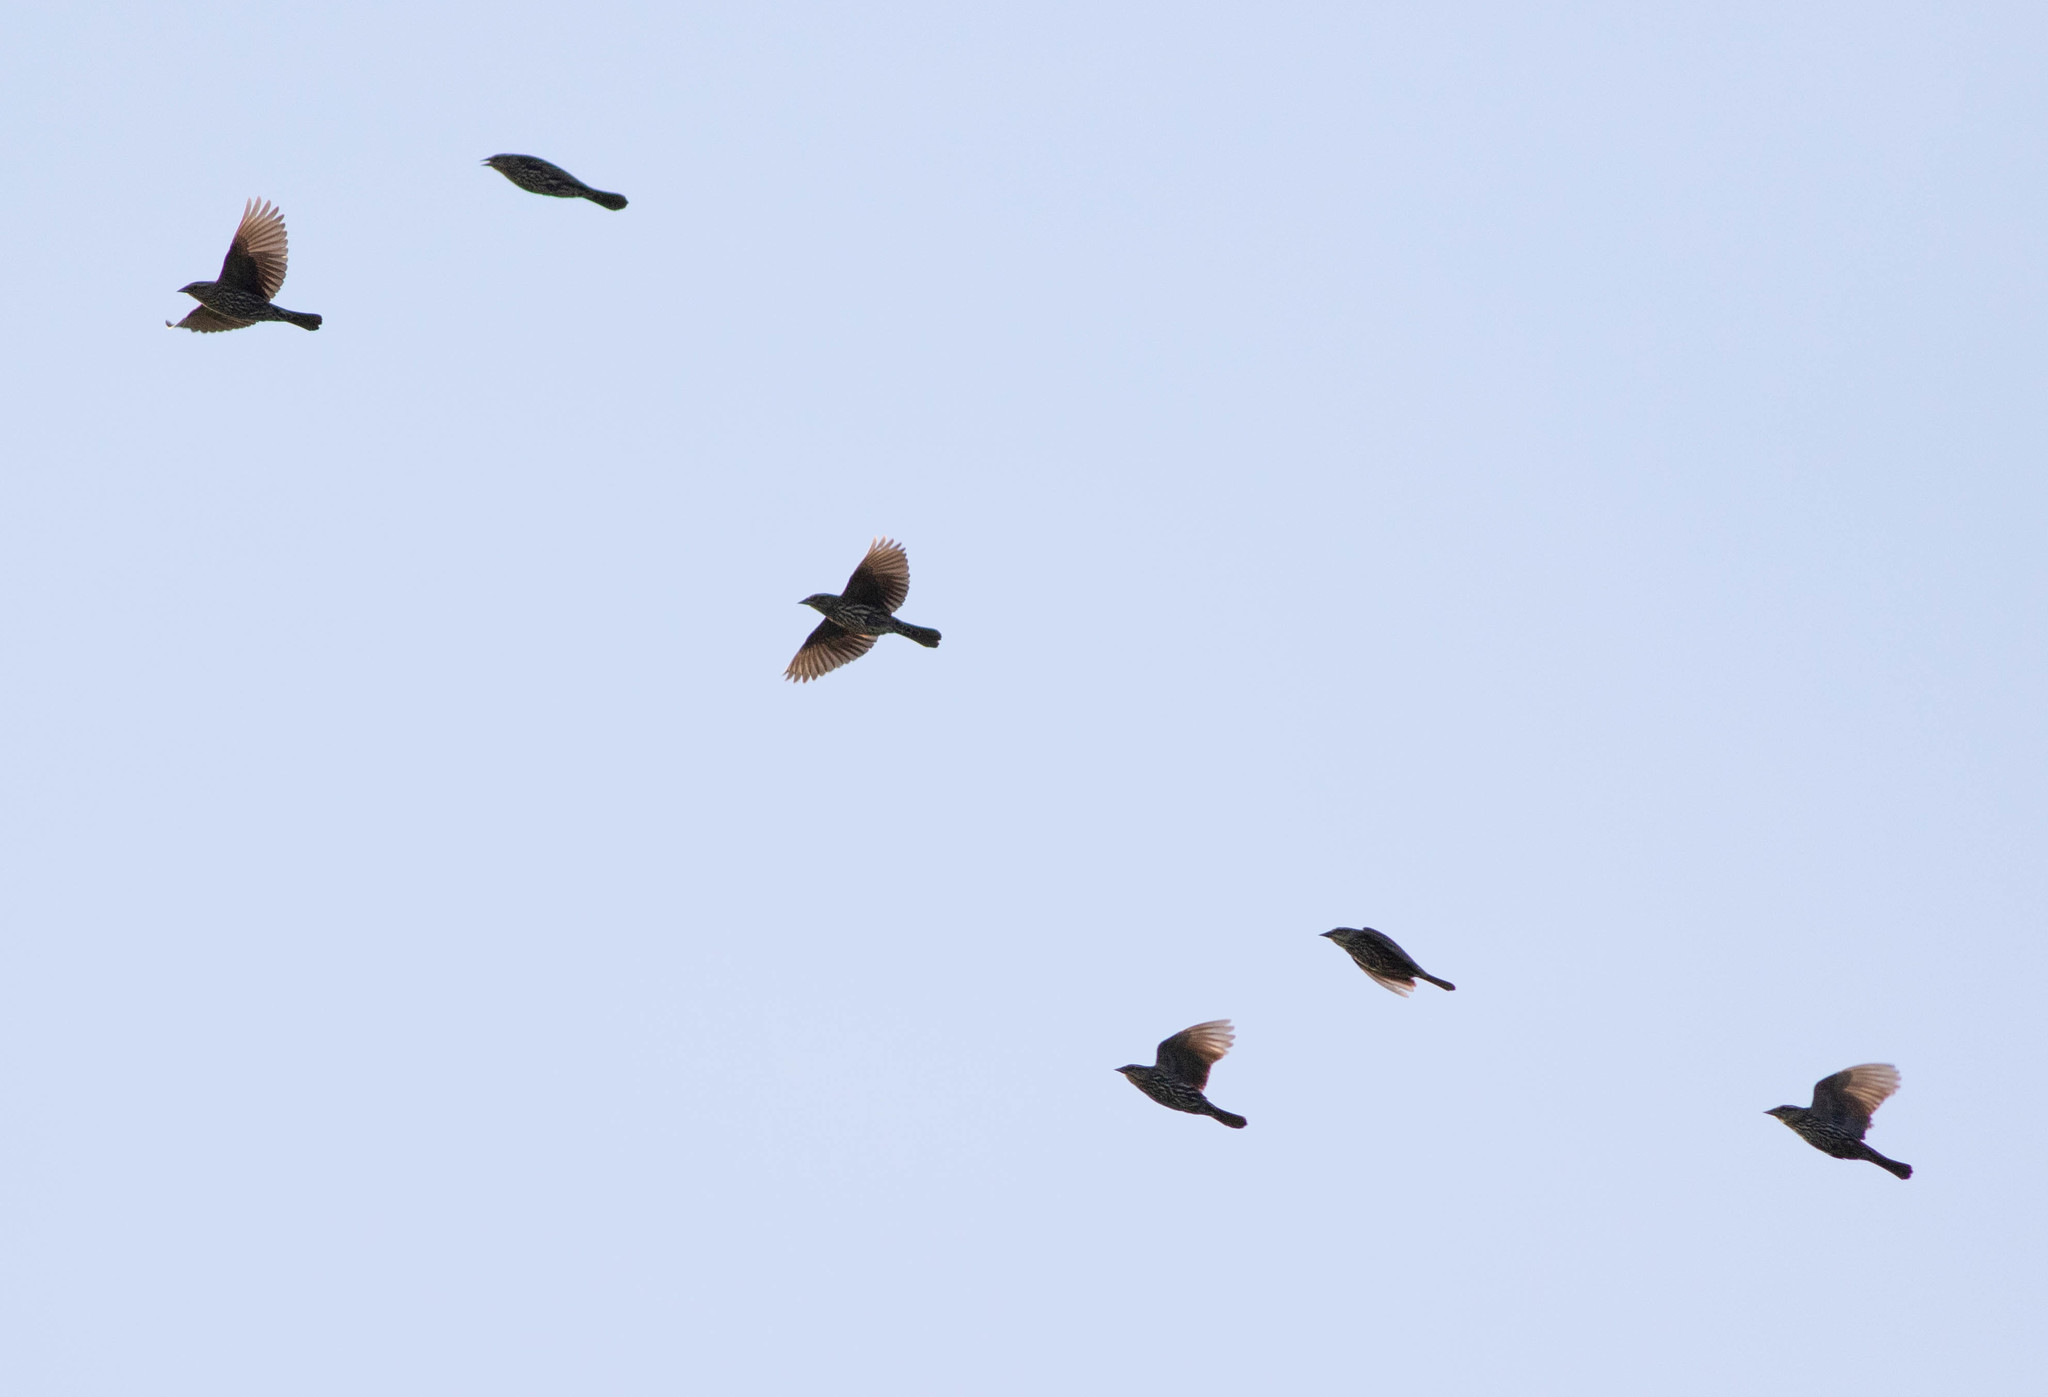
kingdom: Animalia
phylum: Chordata
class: Aves
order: Passeriformes
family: Icteridae
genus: Agelaius
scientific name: Agelaius phoeniceus
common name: Red-winged blackbird
